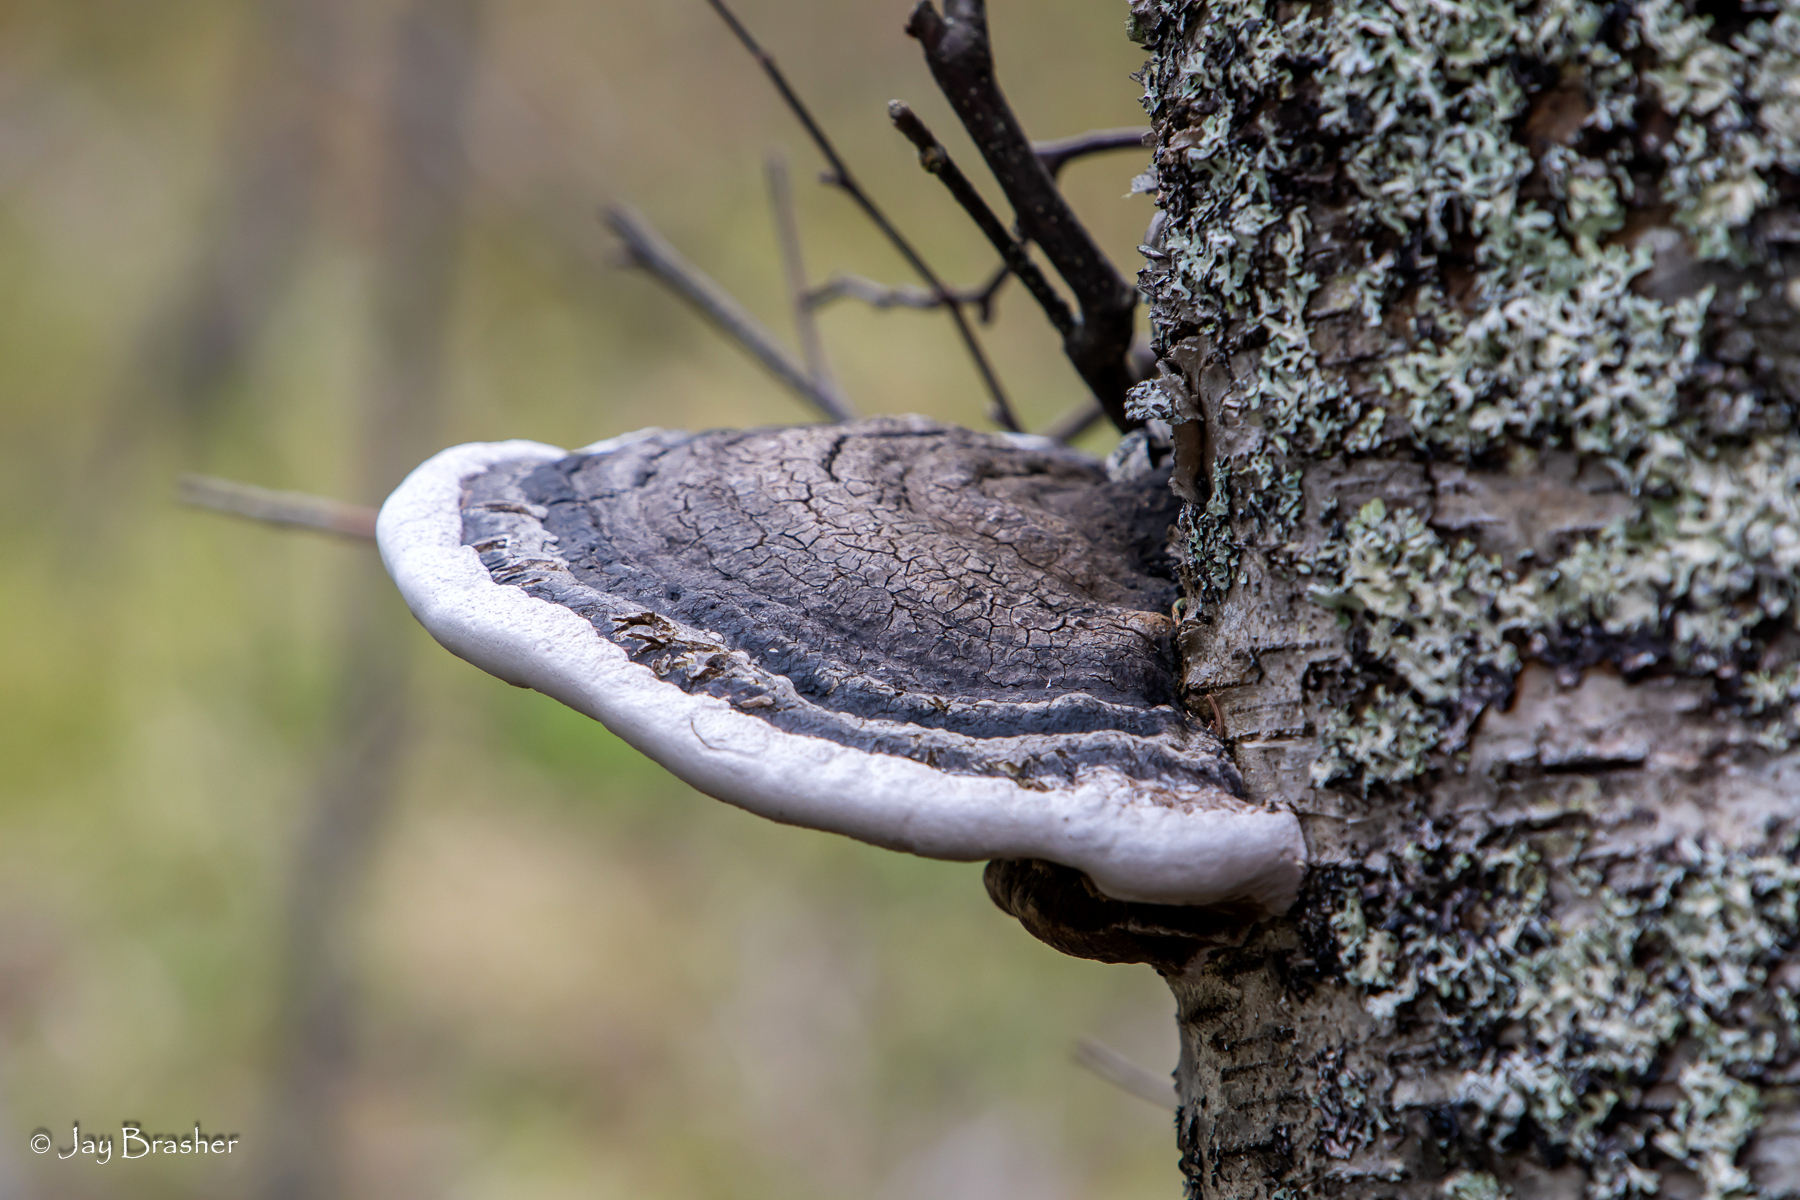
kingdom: Fungi
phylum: Basidiomycota
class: Agaricomycetes
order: Hymenochaetales
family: Hymenochaetaceae
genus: Phellinus
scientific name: Phellinus igniarius
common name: Willow bracket
